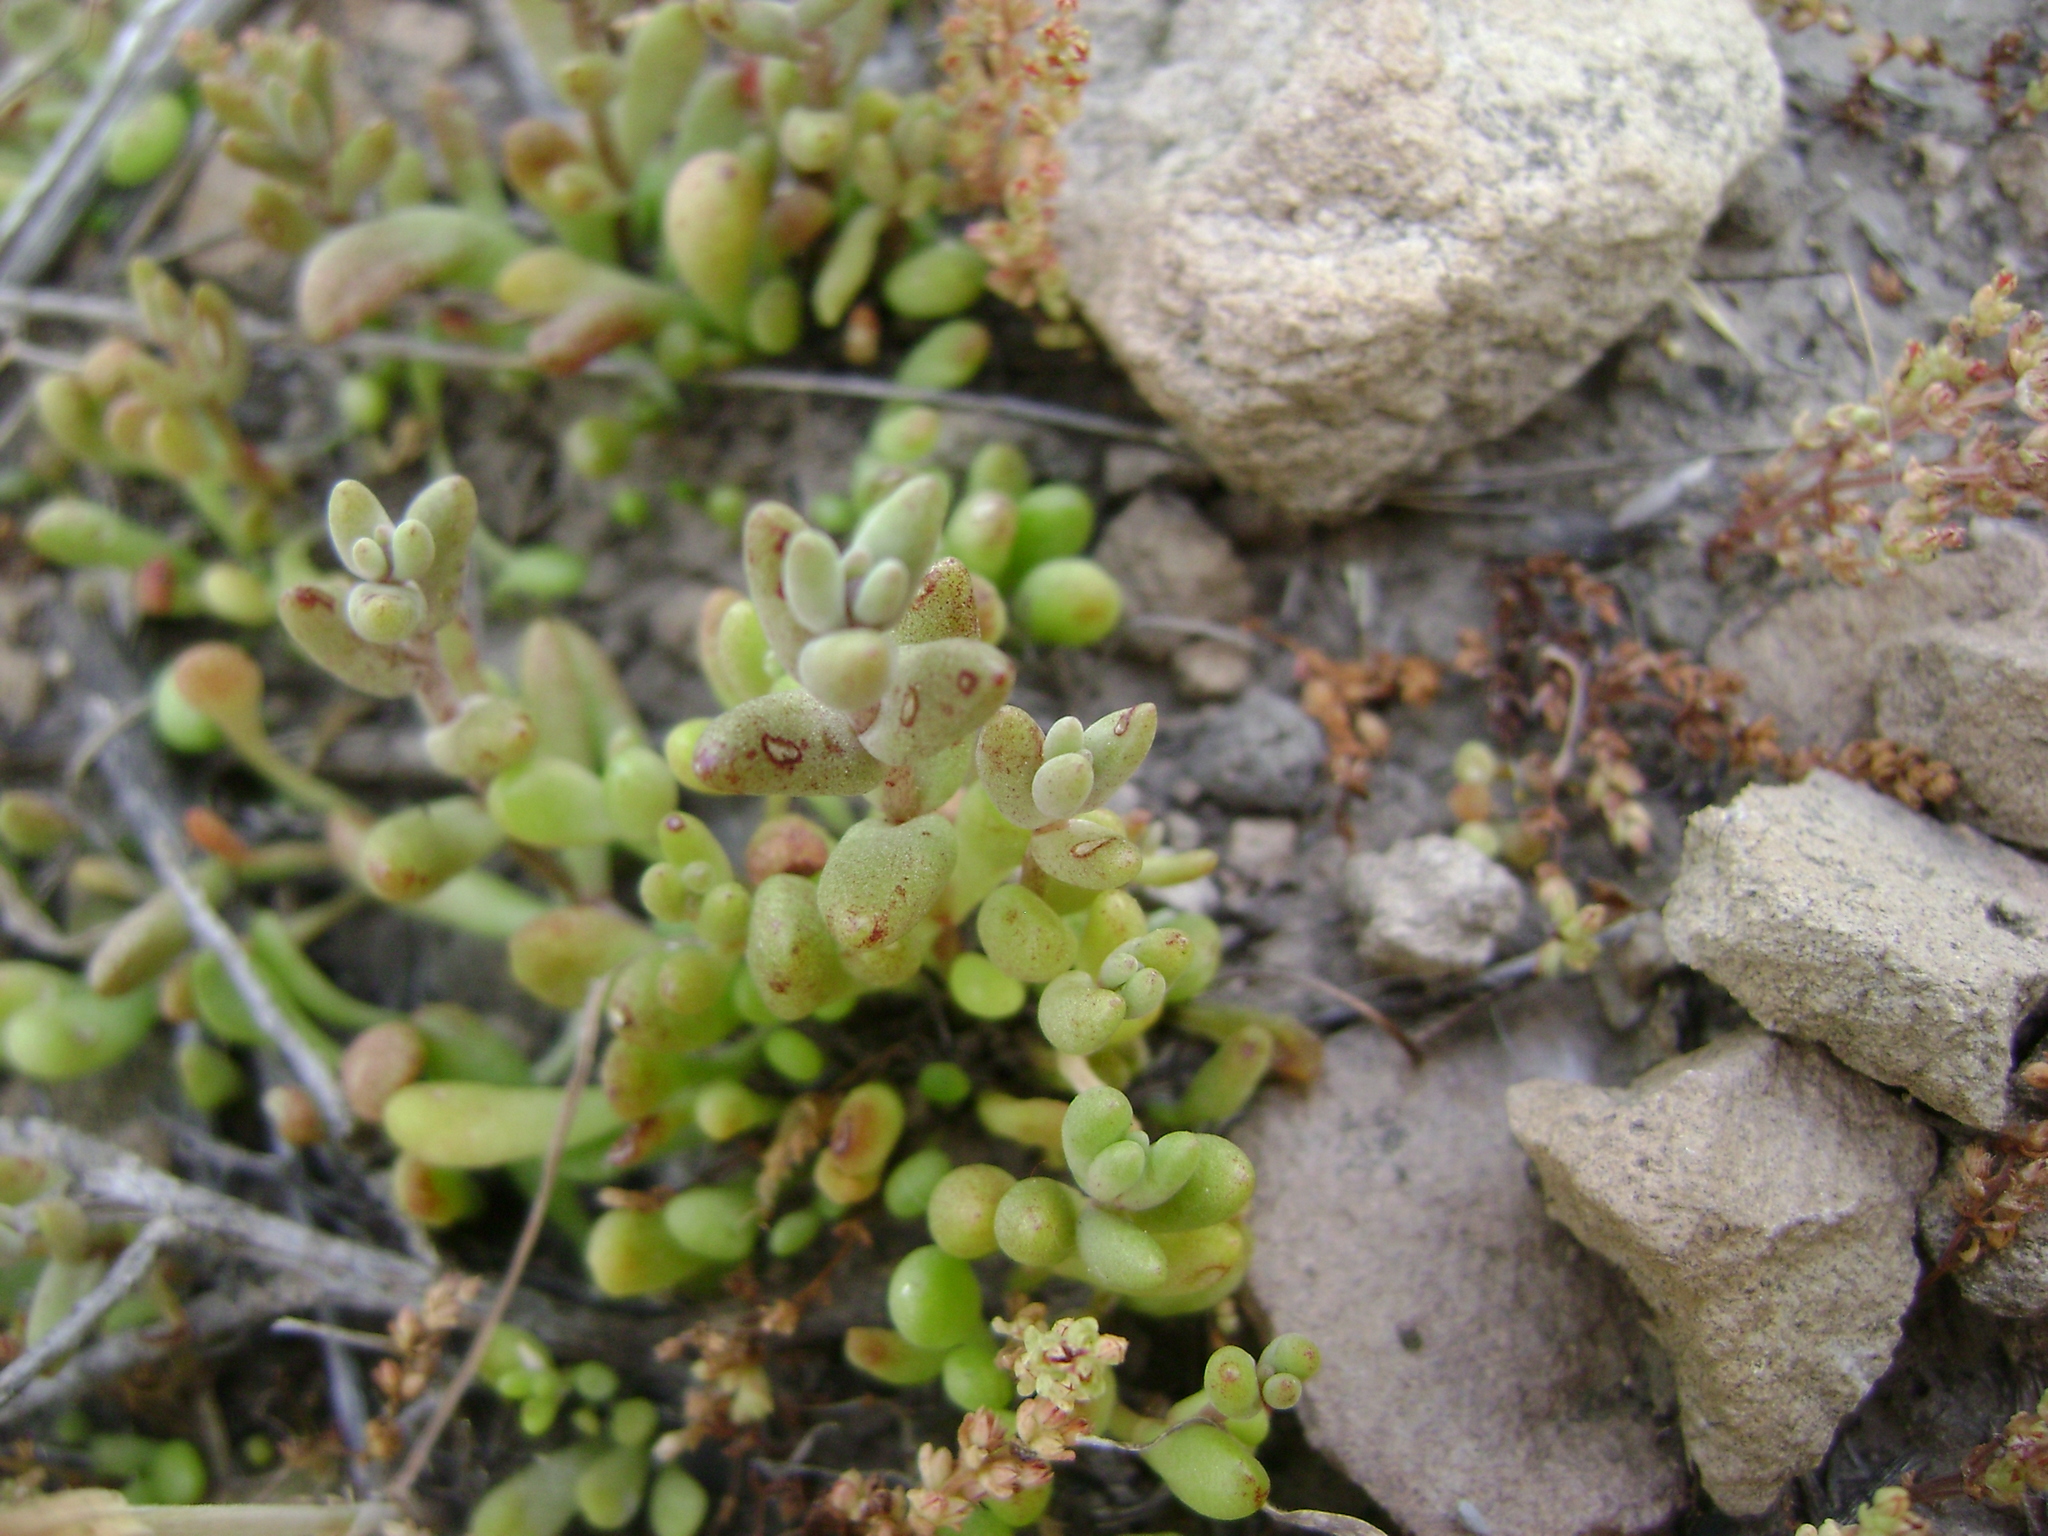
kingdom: Plantae
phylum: Tracheophyta
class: Magnoliopsida
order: Saxifragales
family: Crassulaceae
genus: Dudleya
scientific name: Dudleya blochmaniae
